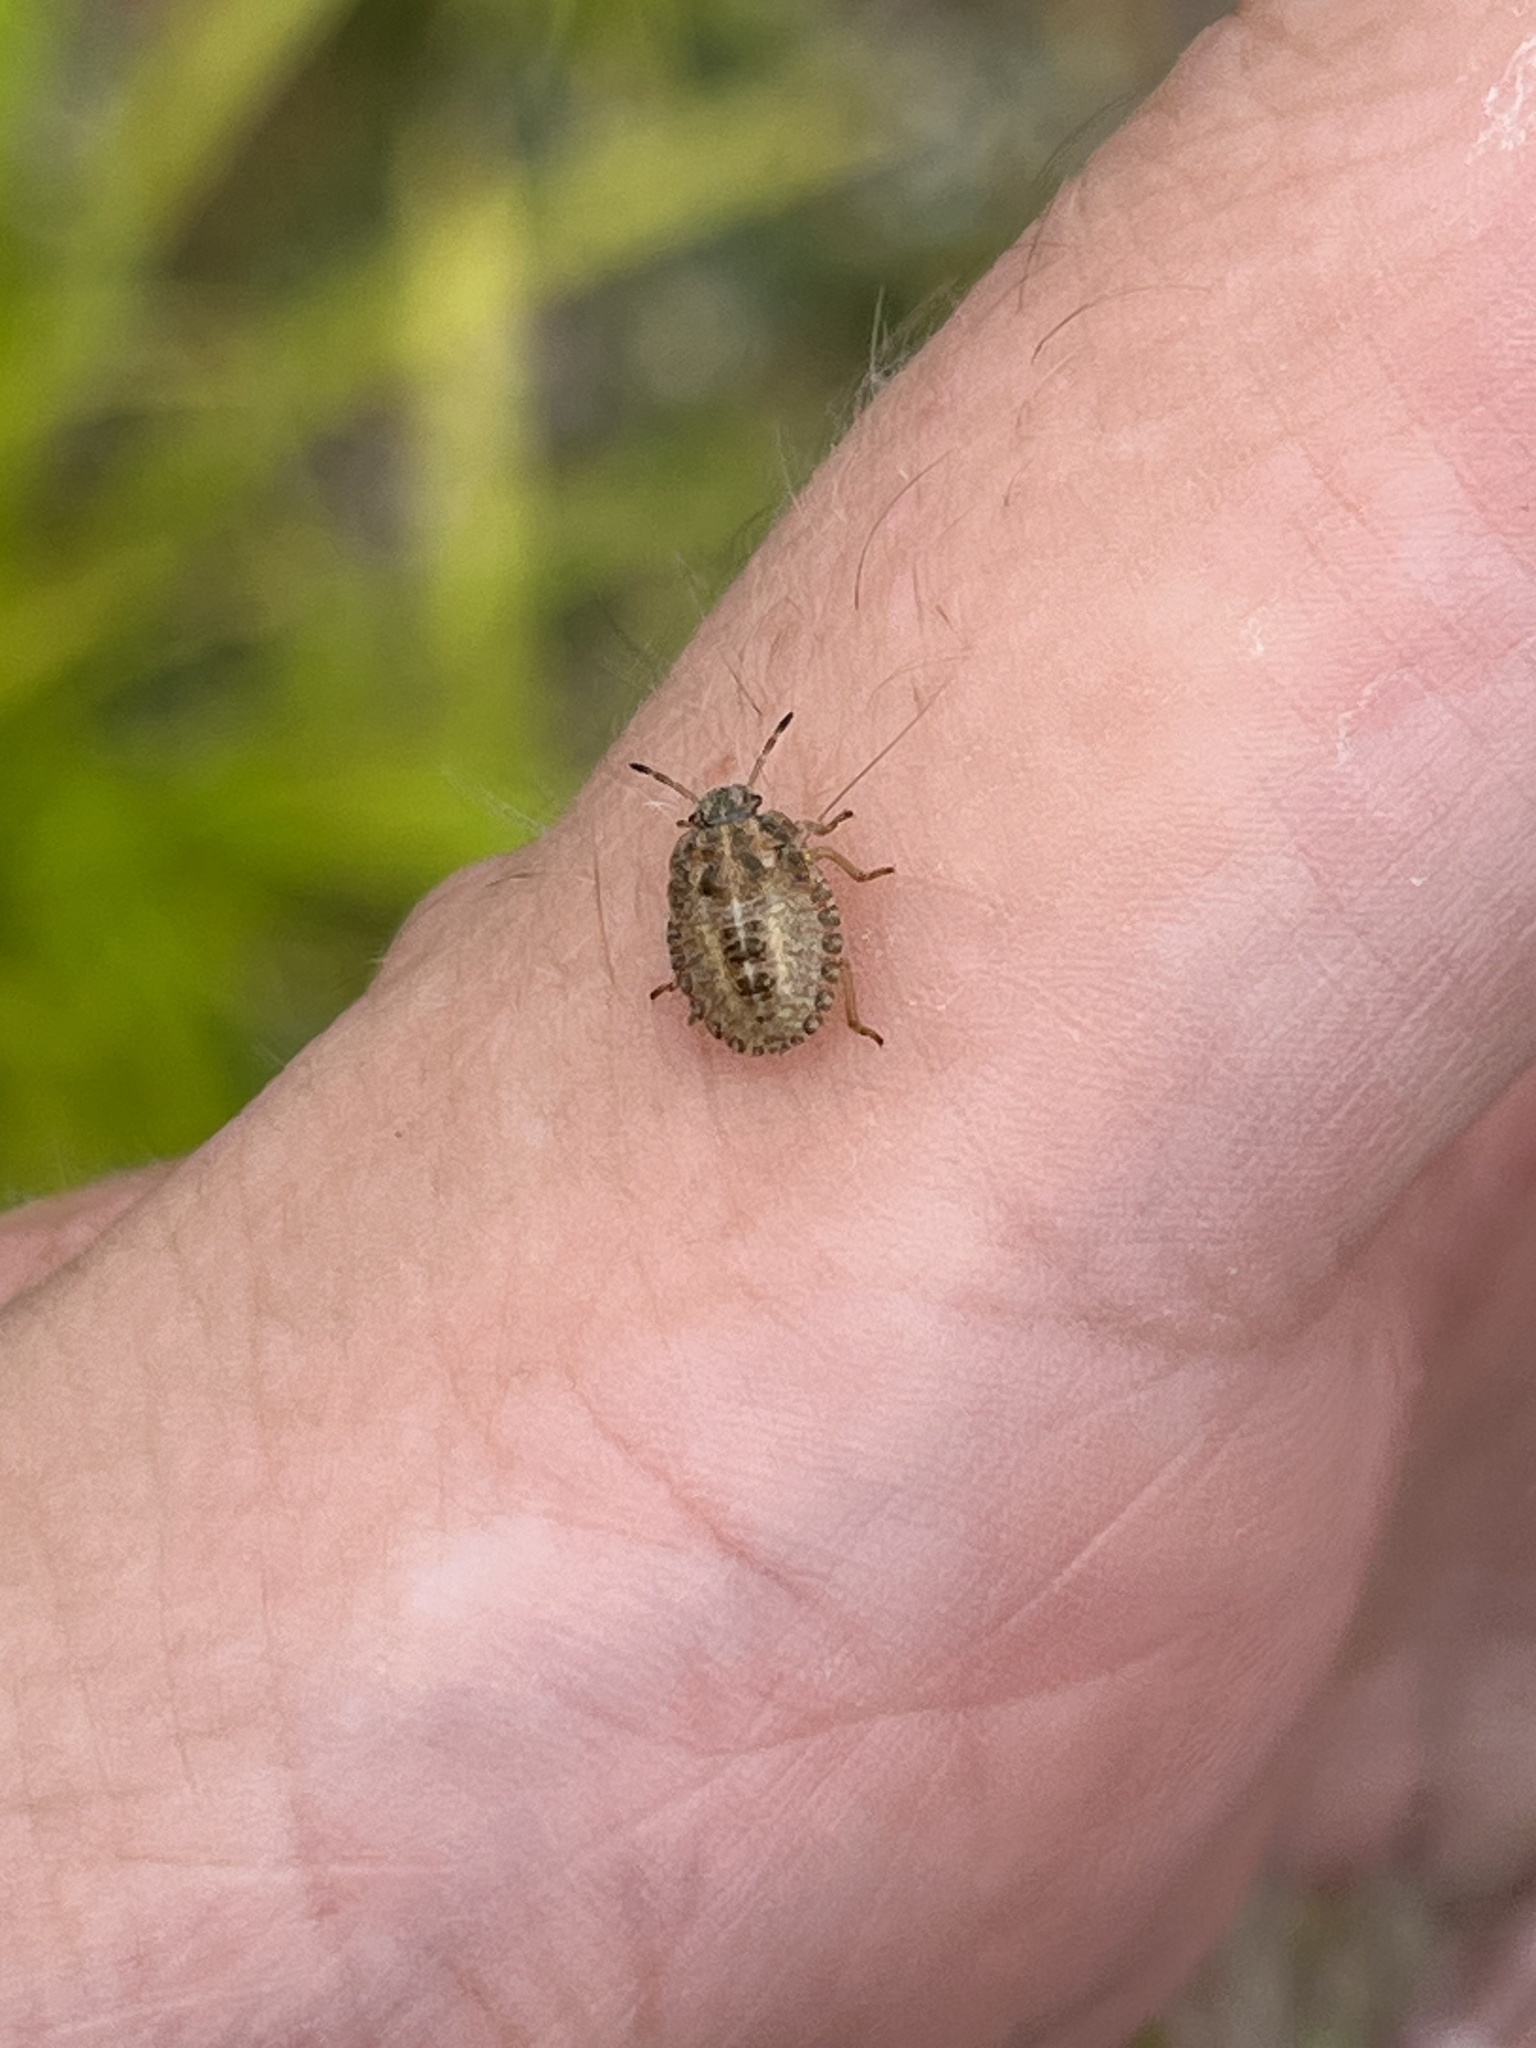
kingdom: Animalia
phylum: Arthropoda
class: Insecta
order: Hemiptera
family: Pentatomidae
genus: Dolycoris
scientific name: Dolycoris baccarum
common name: Sloe bug
